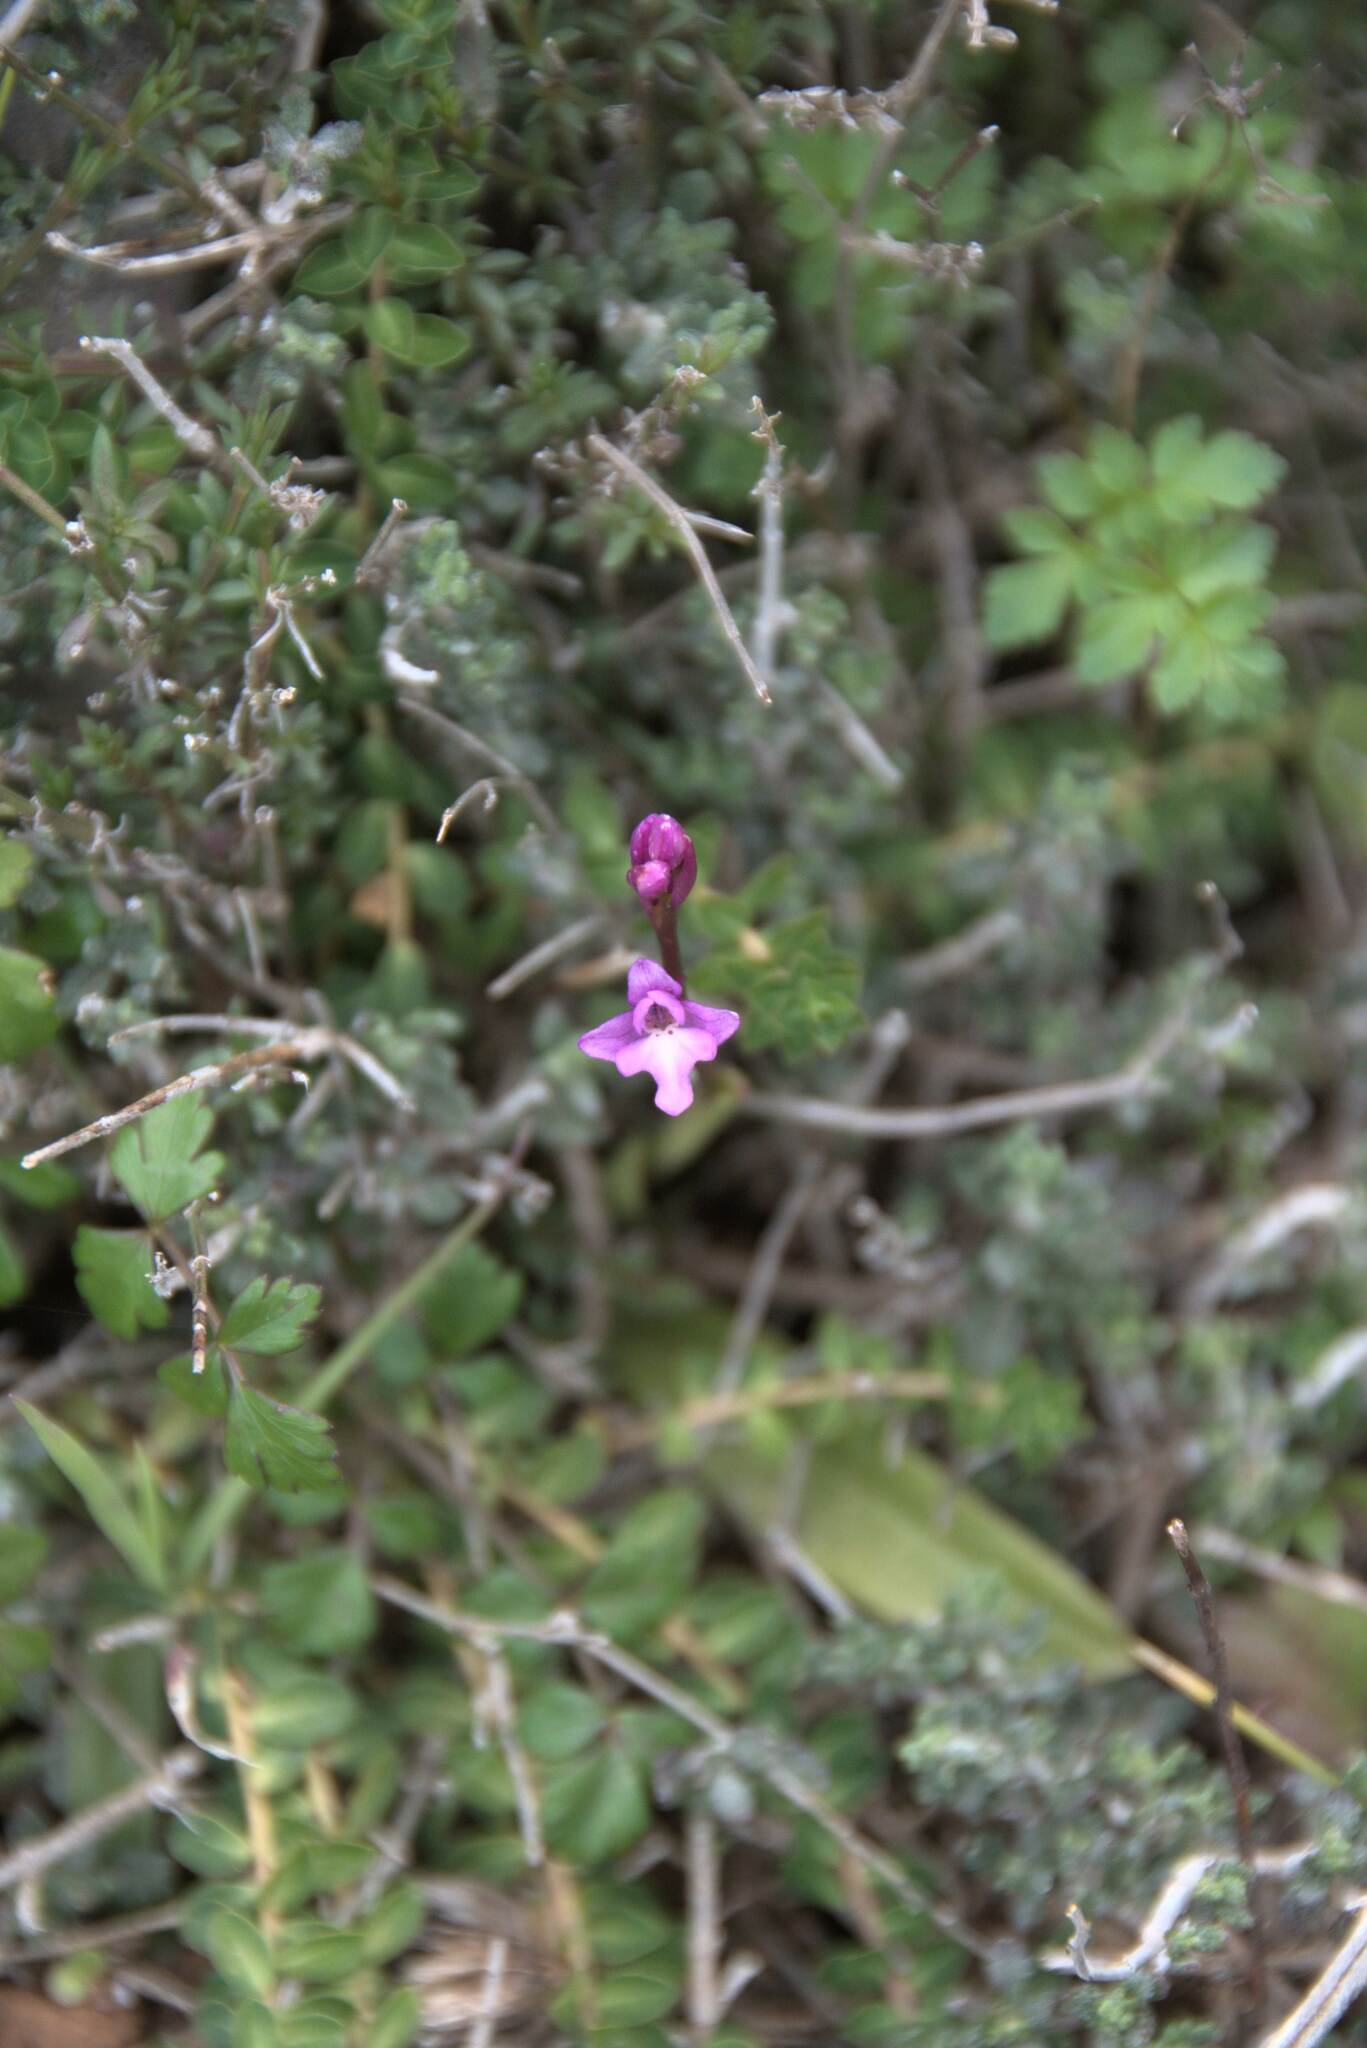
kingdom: Plantae
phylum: Tracheophyta
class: Liliopsida
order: Asparagales
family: Orchidaceae
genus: Orchis
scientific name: Orchis quadripunctata
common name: Four-spotted orchid
